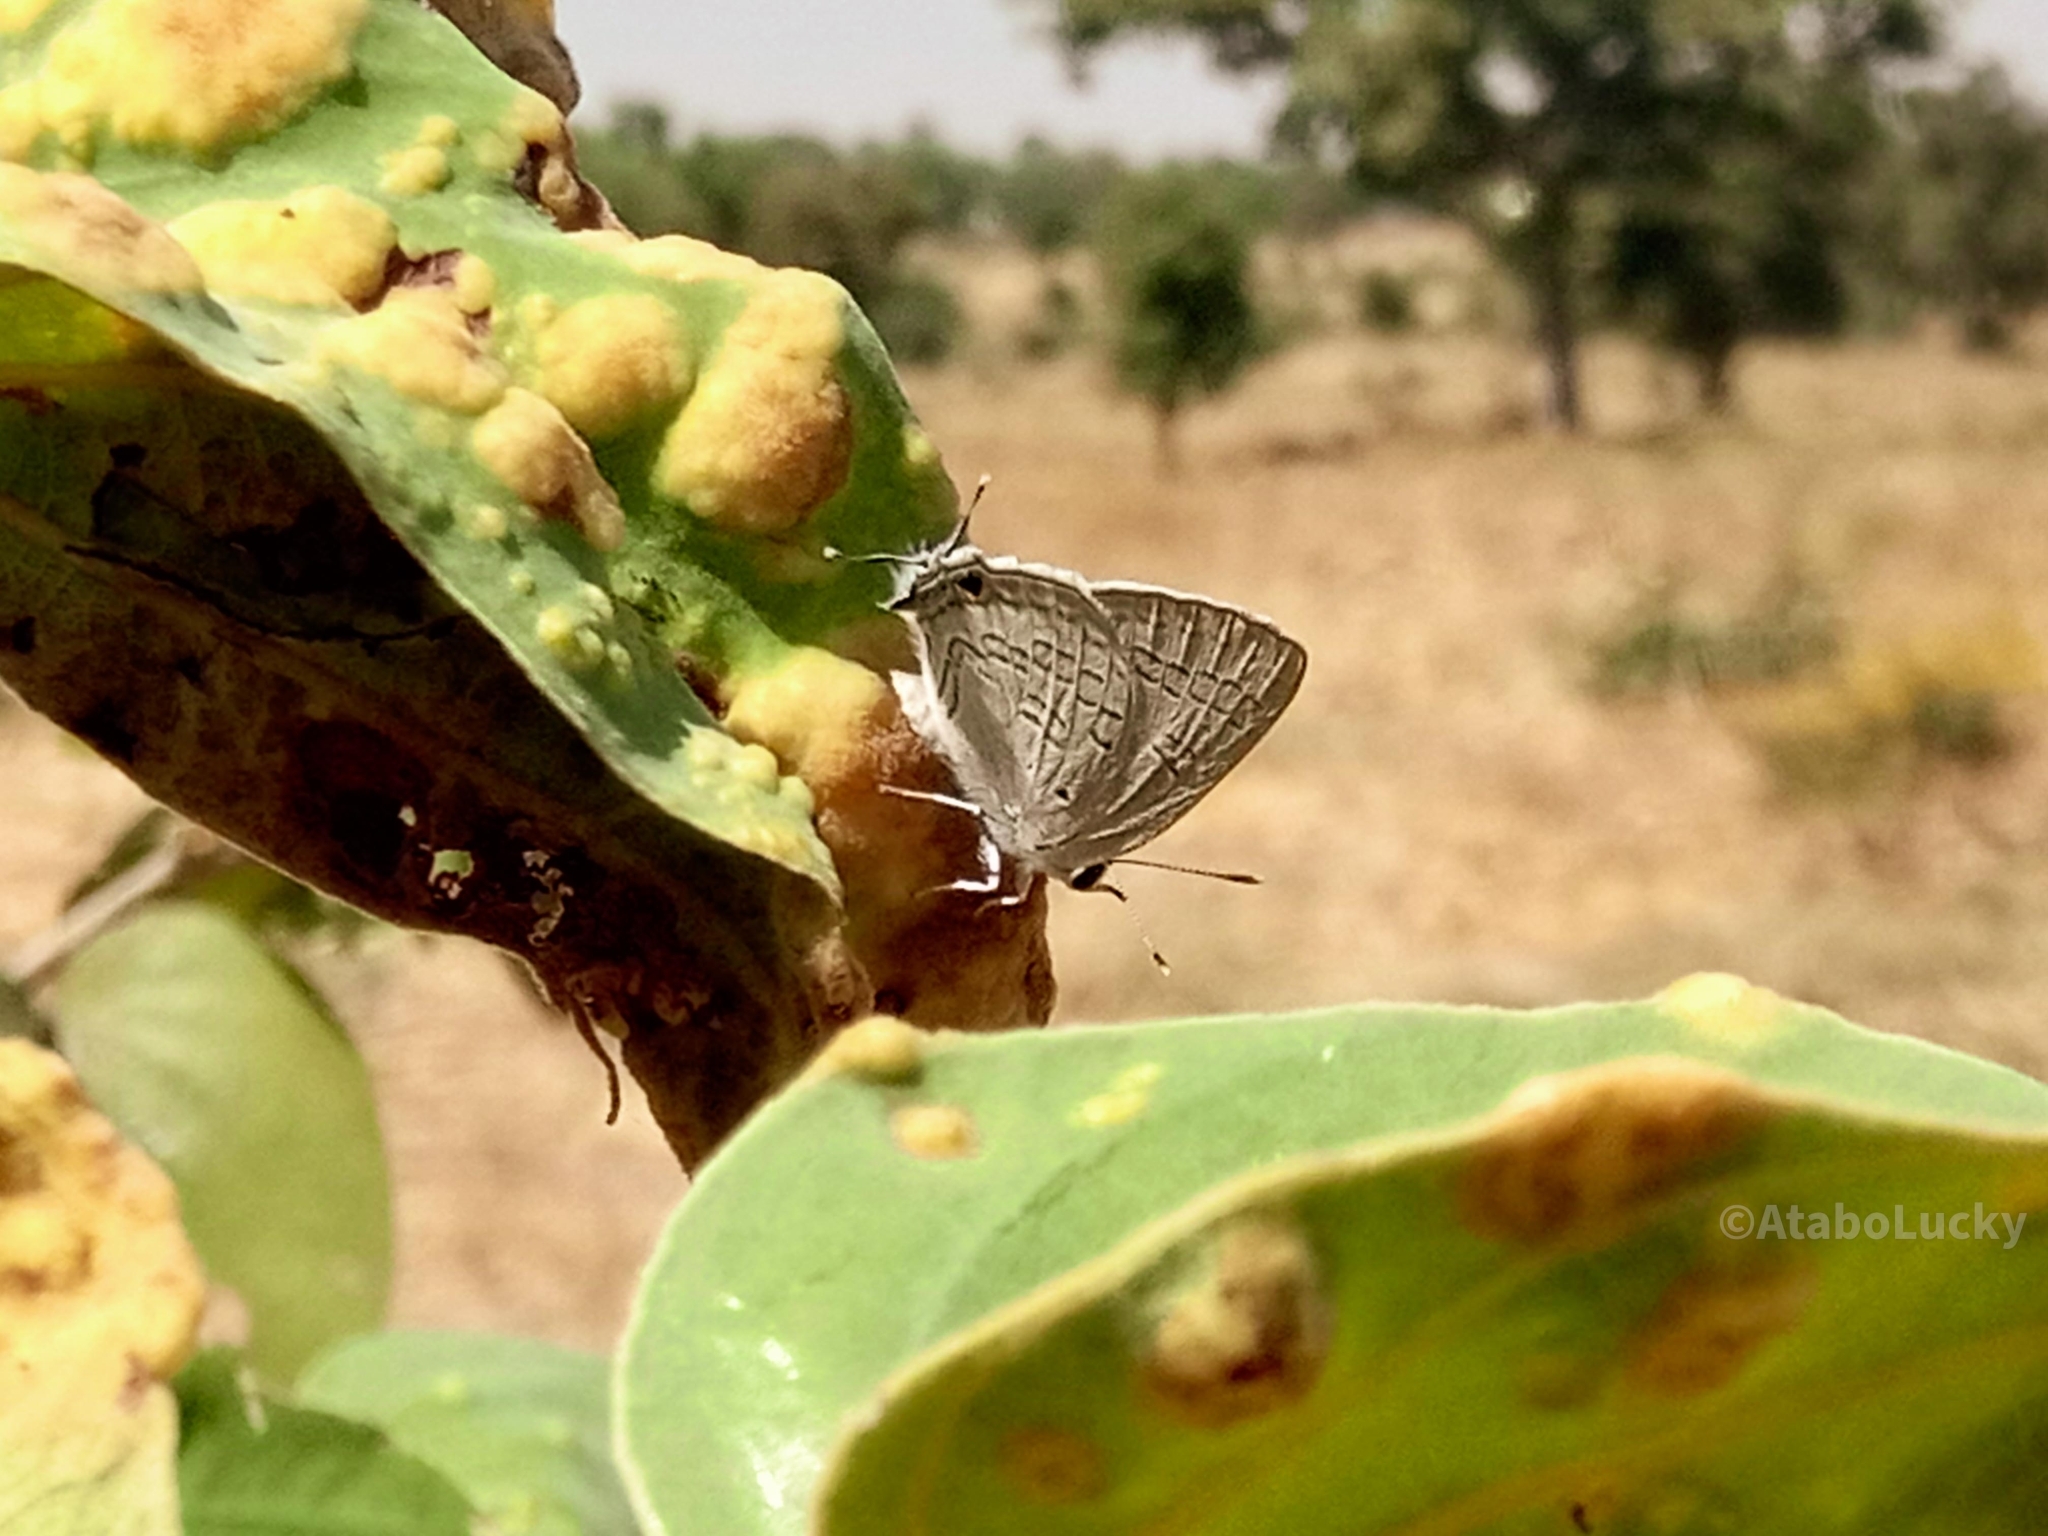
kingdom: Animalia
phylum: Arthropoda
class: Insecta
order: Lepidoptera
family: Lycaenidae
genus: Deudorix
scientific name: Deudorix antalus
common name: Brown playboy
